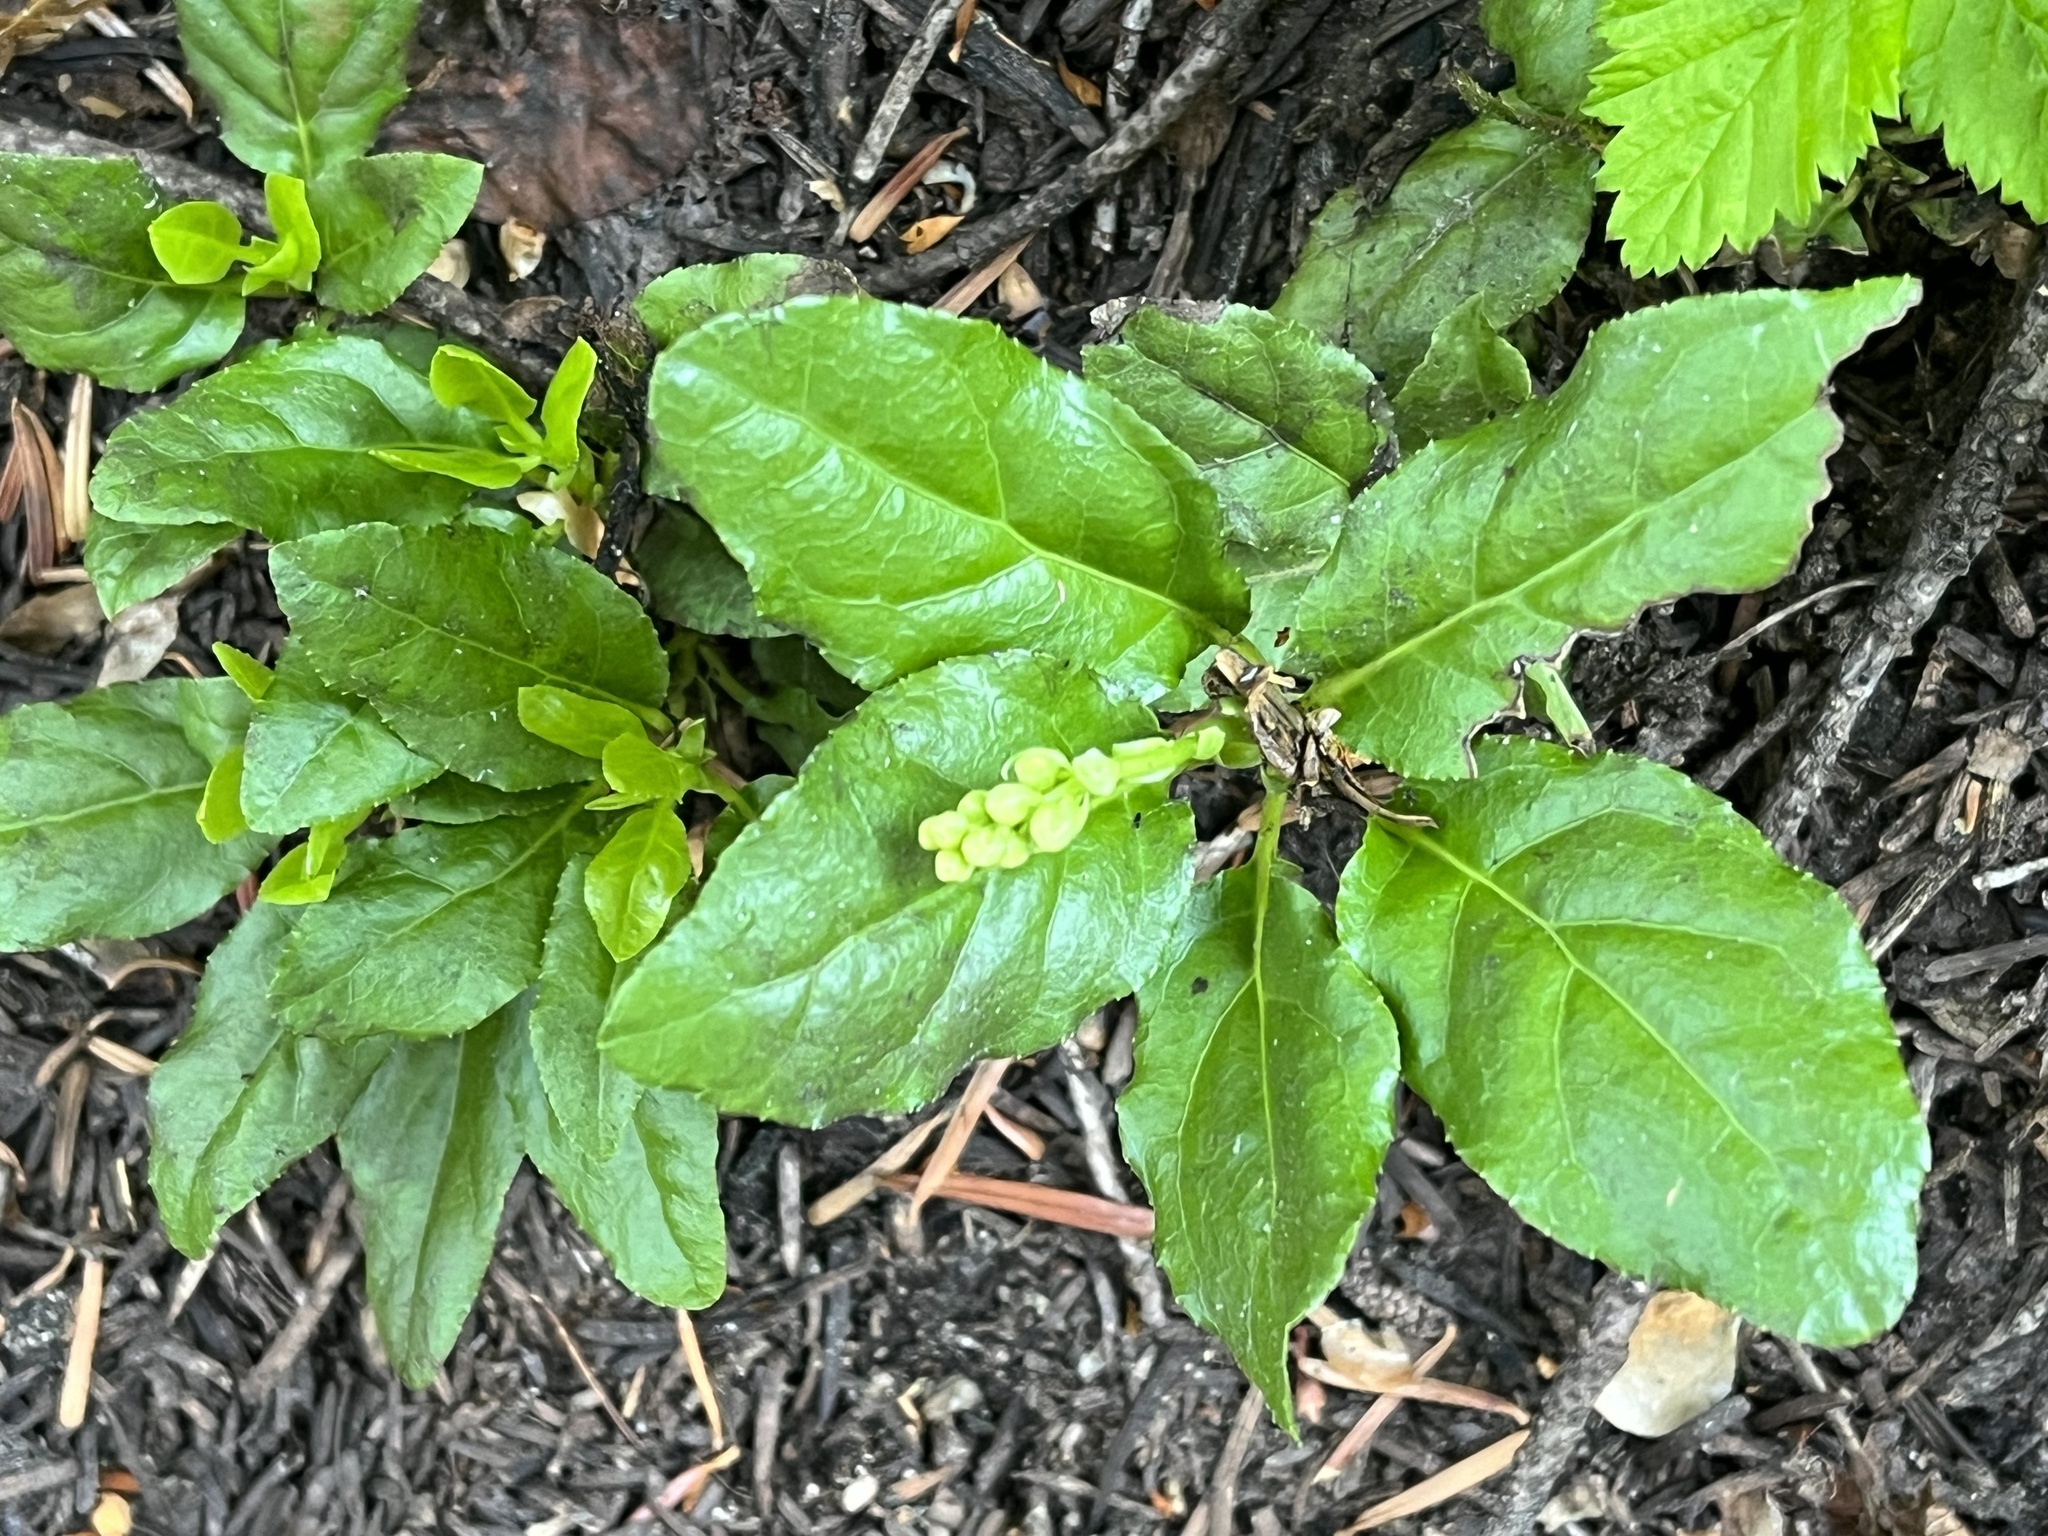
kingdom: Plantae
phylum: Tracheophyta
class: Magnoliopsida
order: Ericales
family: Ericaceae
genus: Orthilia
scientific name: Orthilia secunda
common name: One-sided orthilia
